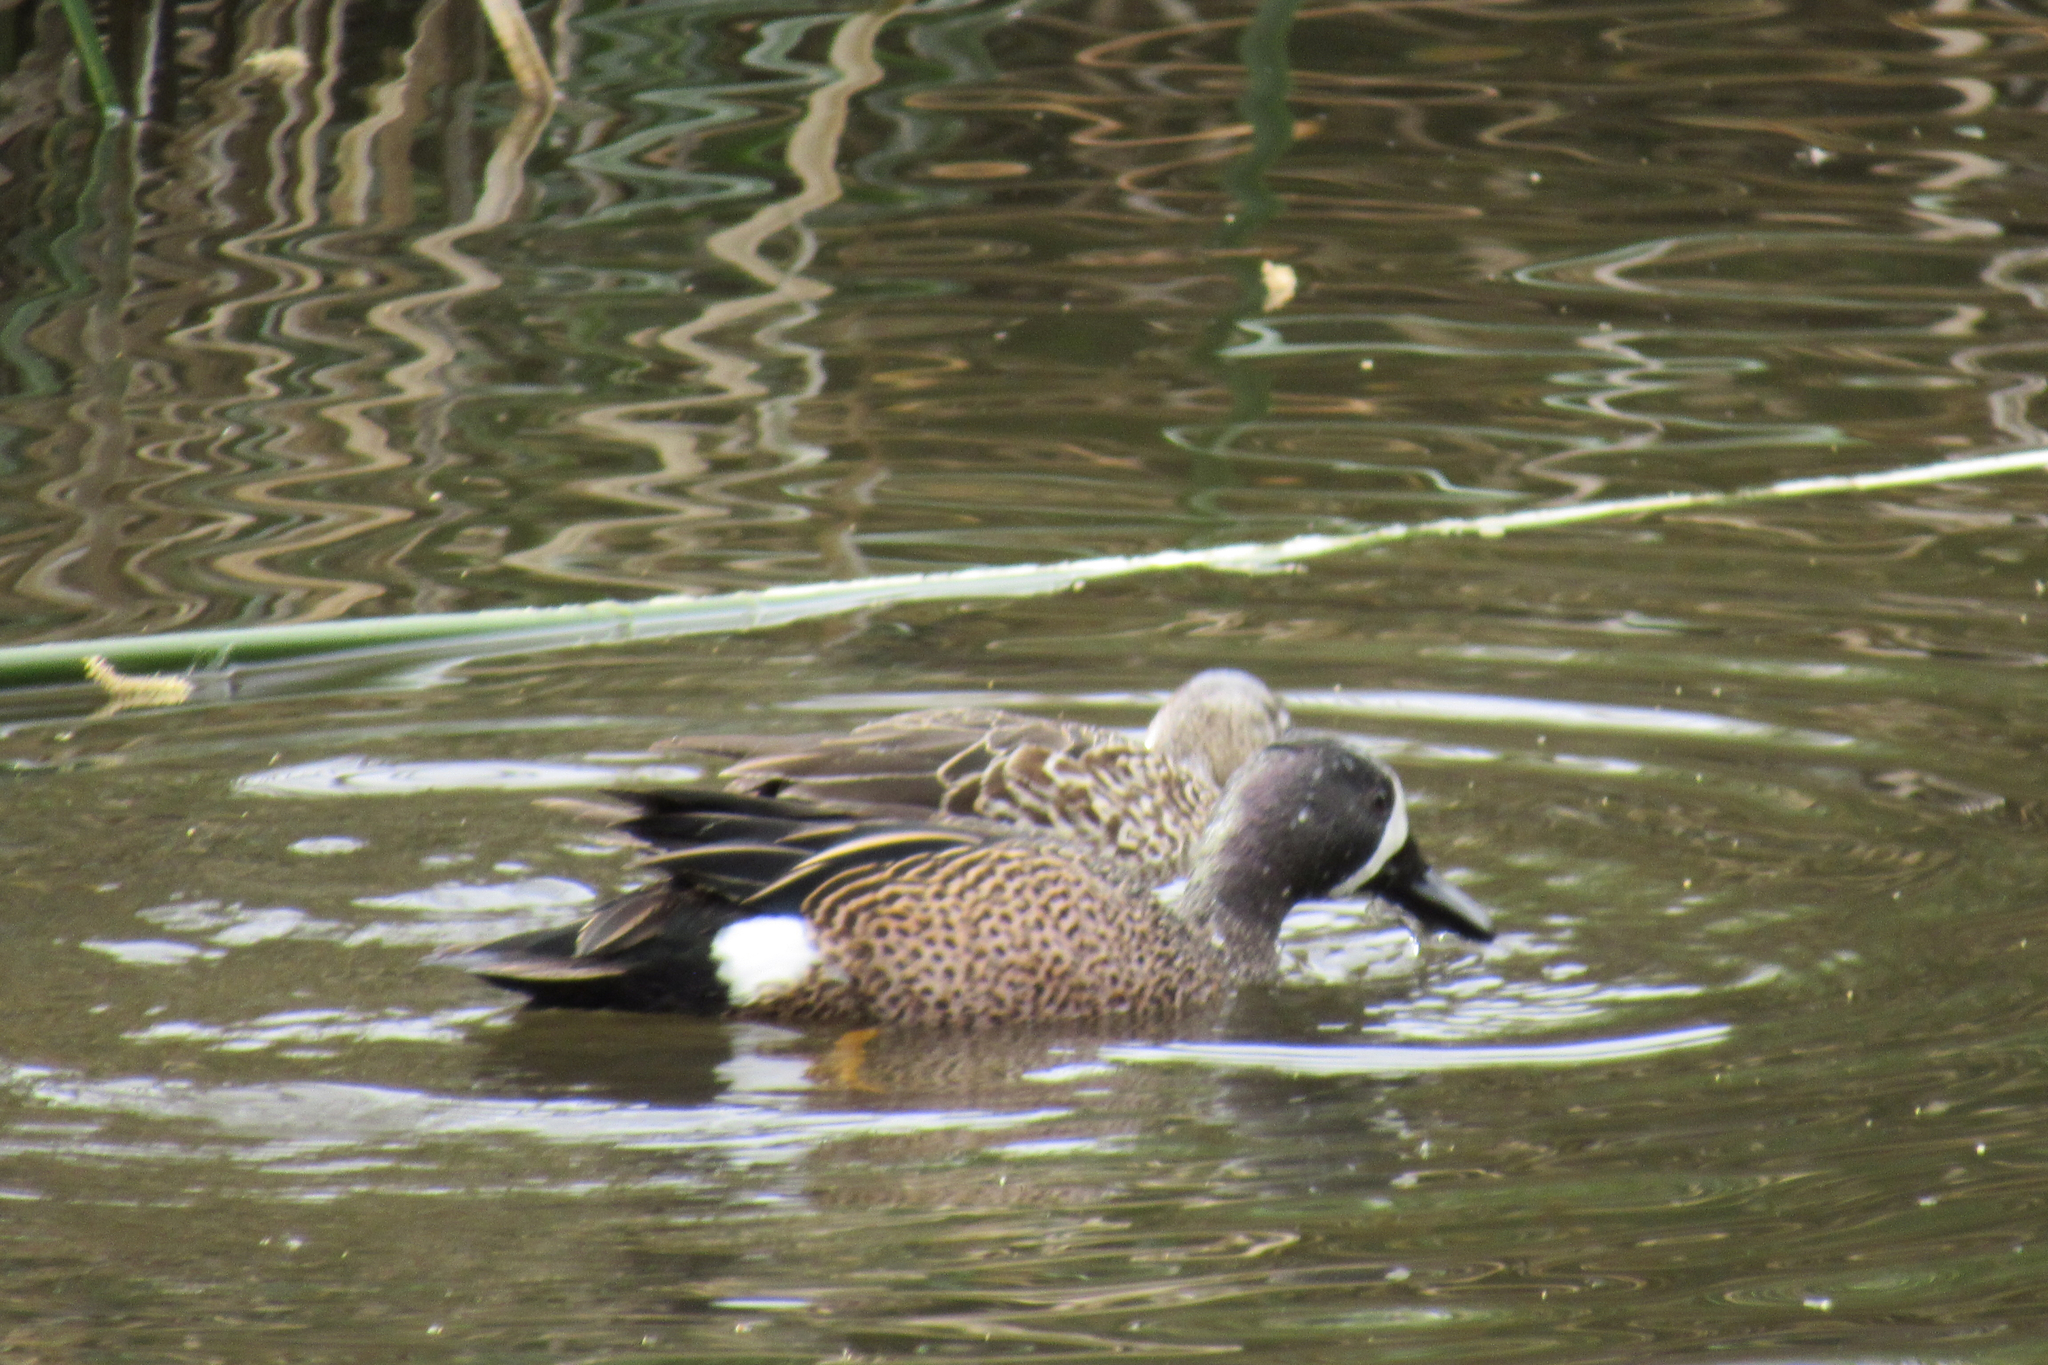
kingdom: Animalia
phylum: Chordata
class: Aves
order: Anseriformes
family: Anatidae
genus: Spatula
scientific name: Spatula discors
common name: Blue-winged teal
